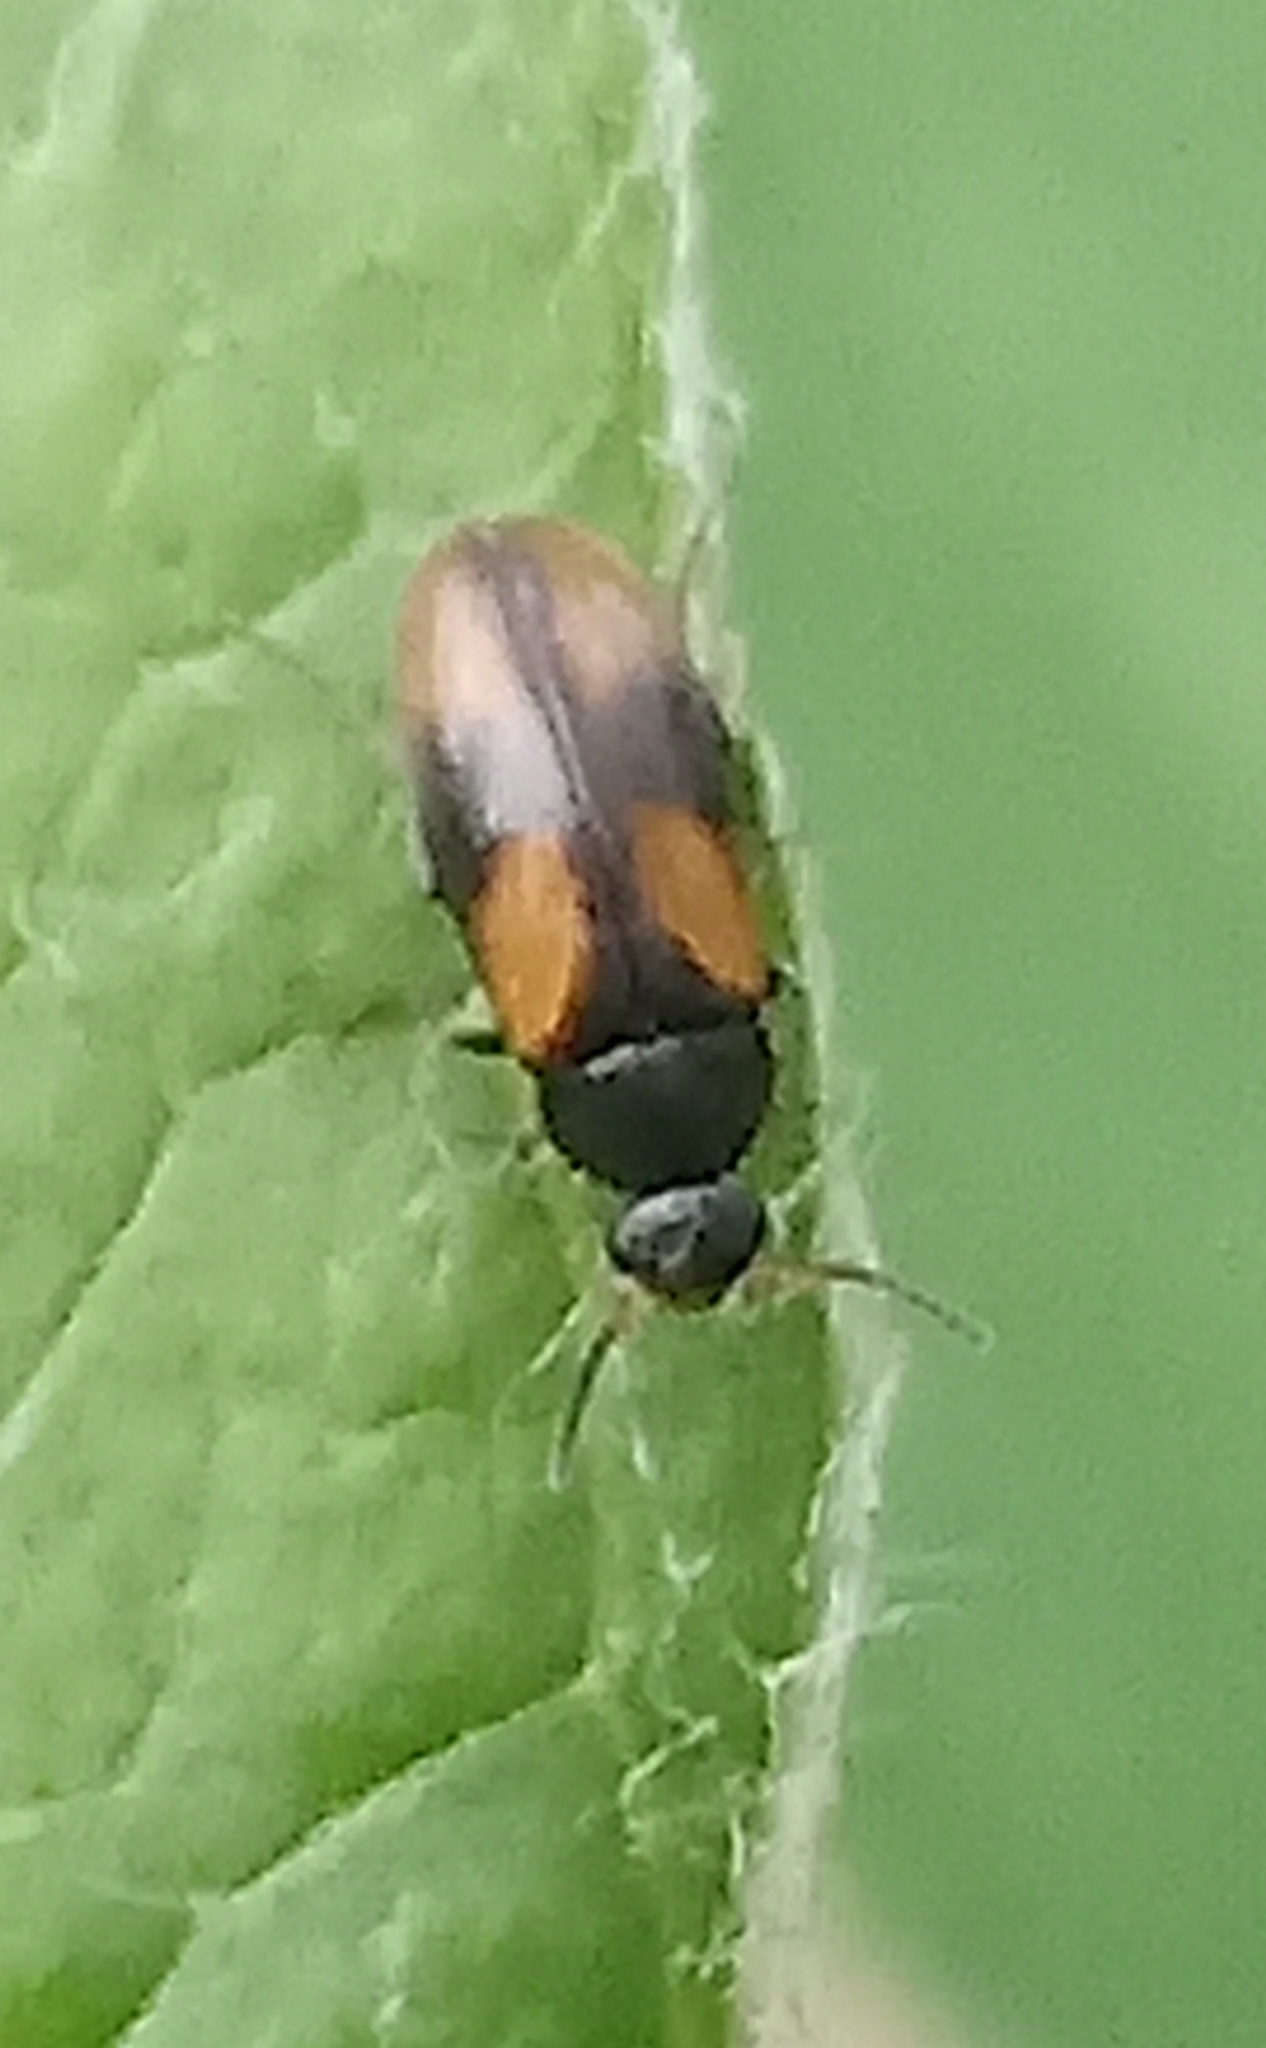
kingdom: Animalia
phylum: Arthropoda
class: Insecta
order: Coleoptera
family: Scraptiidae
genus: Anaspis
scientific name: Anaspis fasciata
